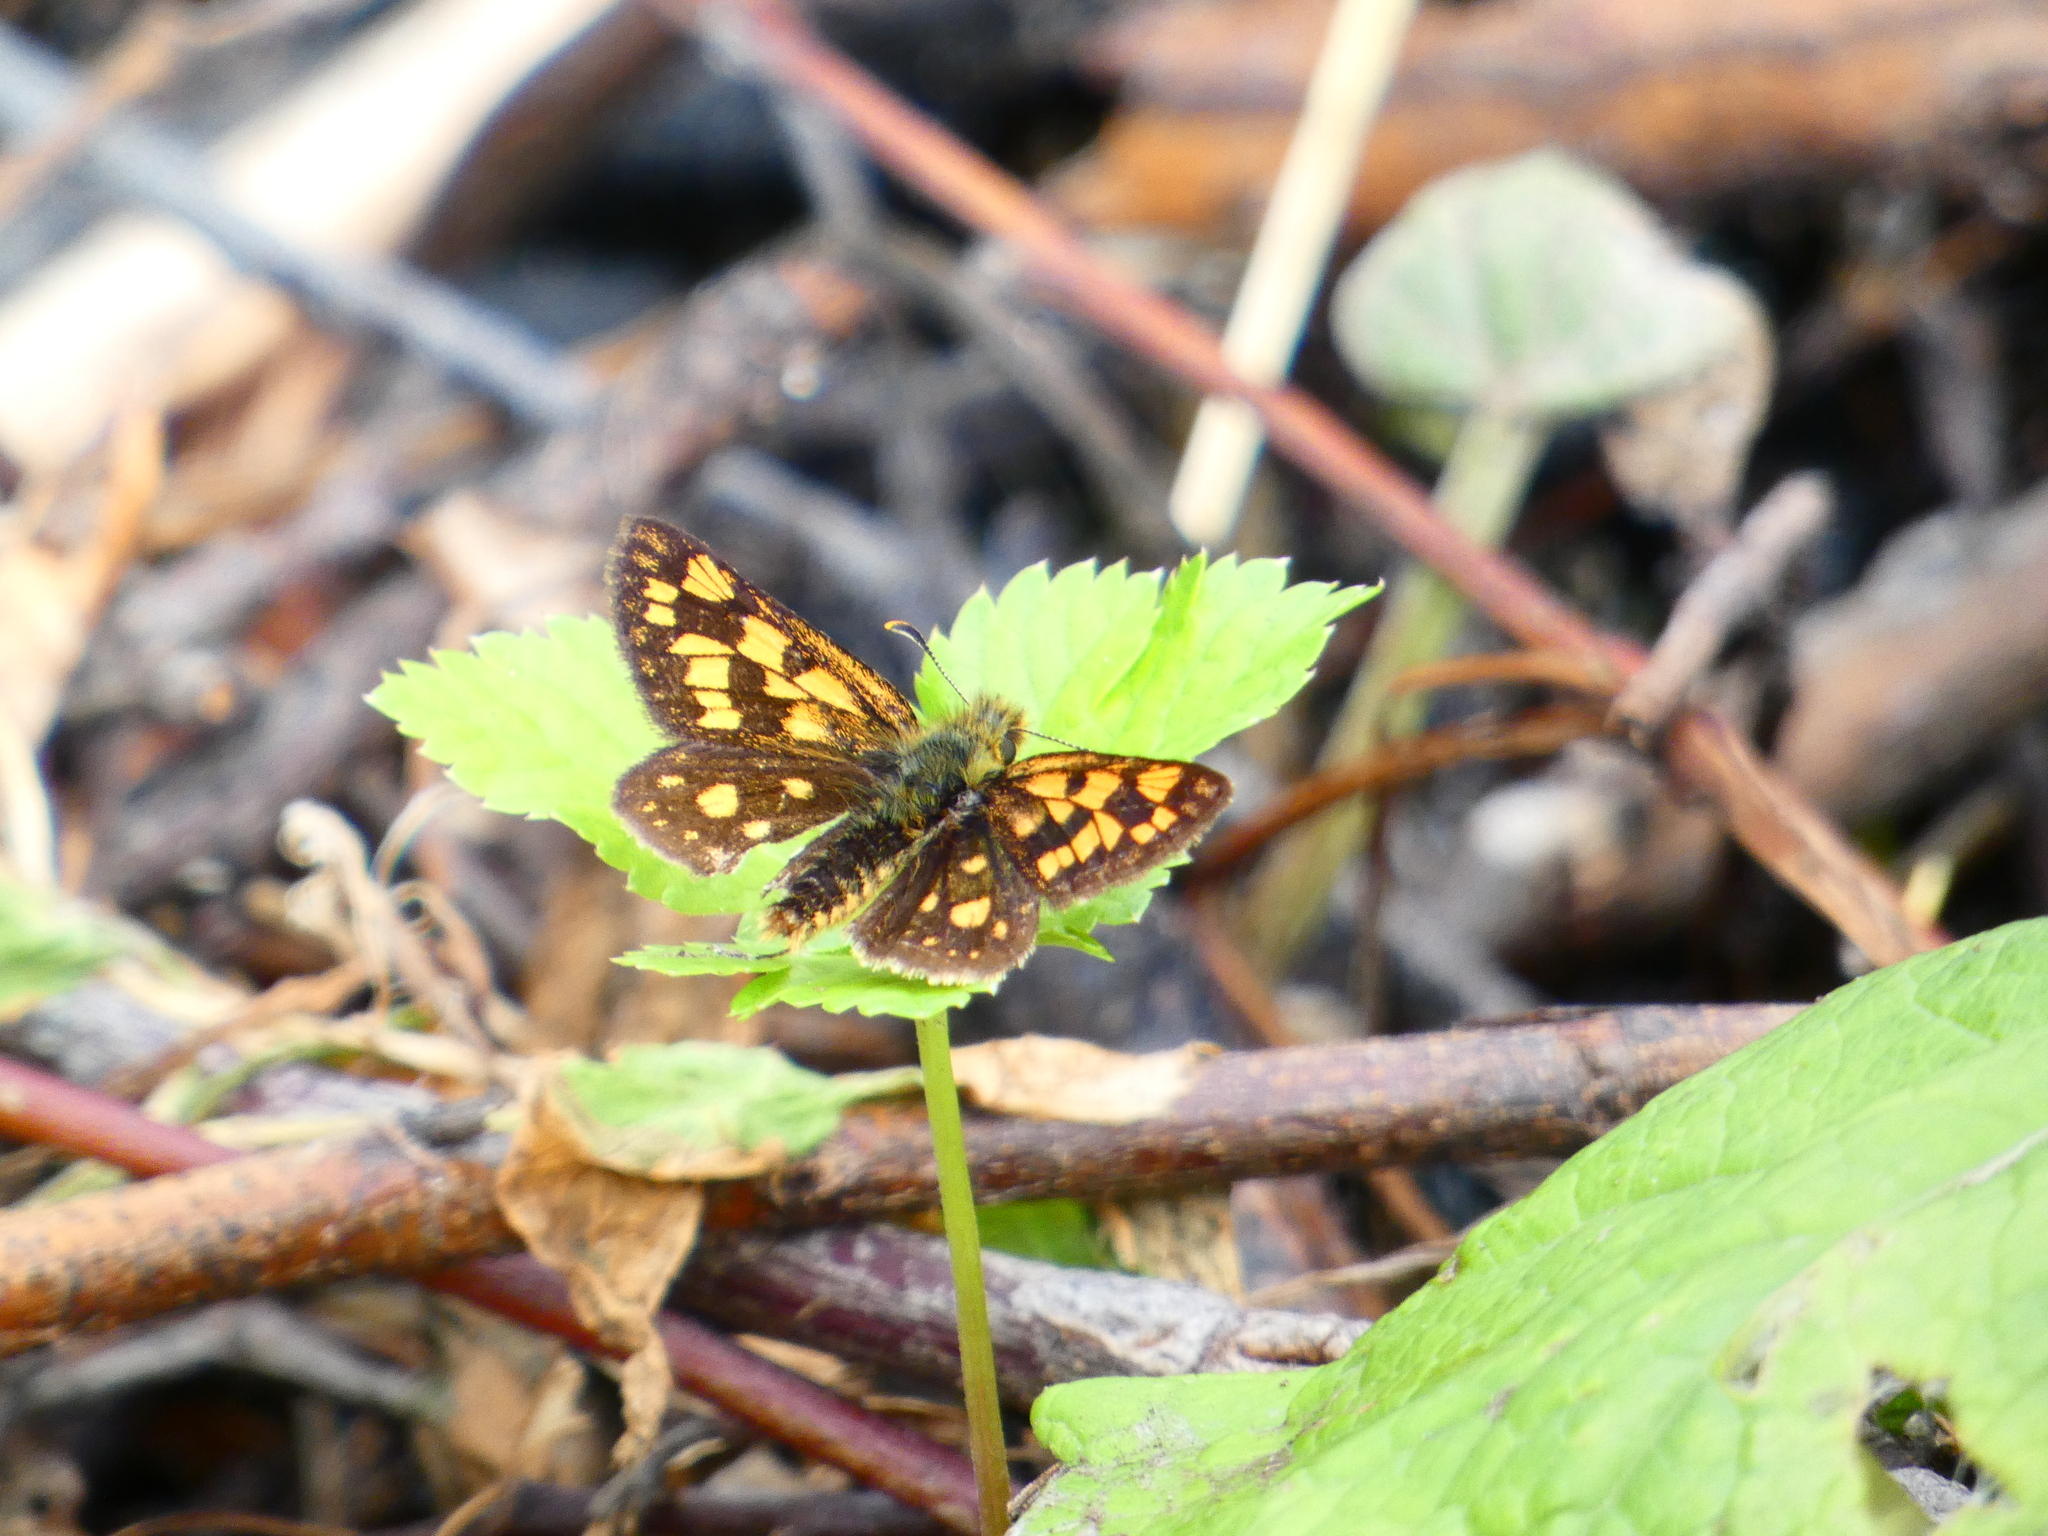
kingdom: Animalia
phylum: Arthropoda
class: Insecta
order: Lepidoptera
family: Hesperiidae
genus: Carterocephalus
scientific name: Carterocephalus palaemon
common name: Chequered skipper
